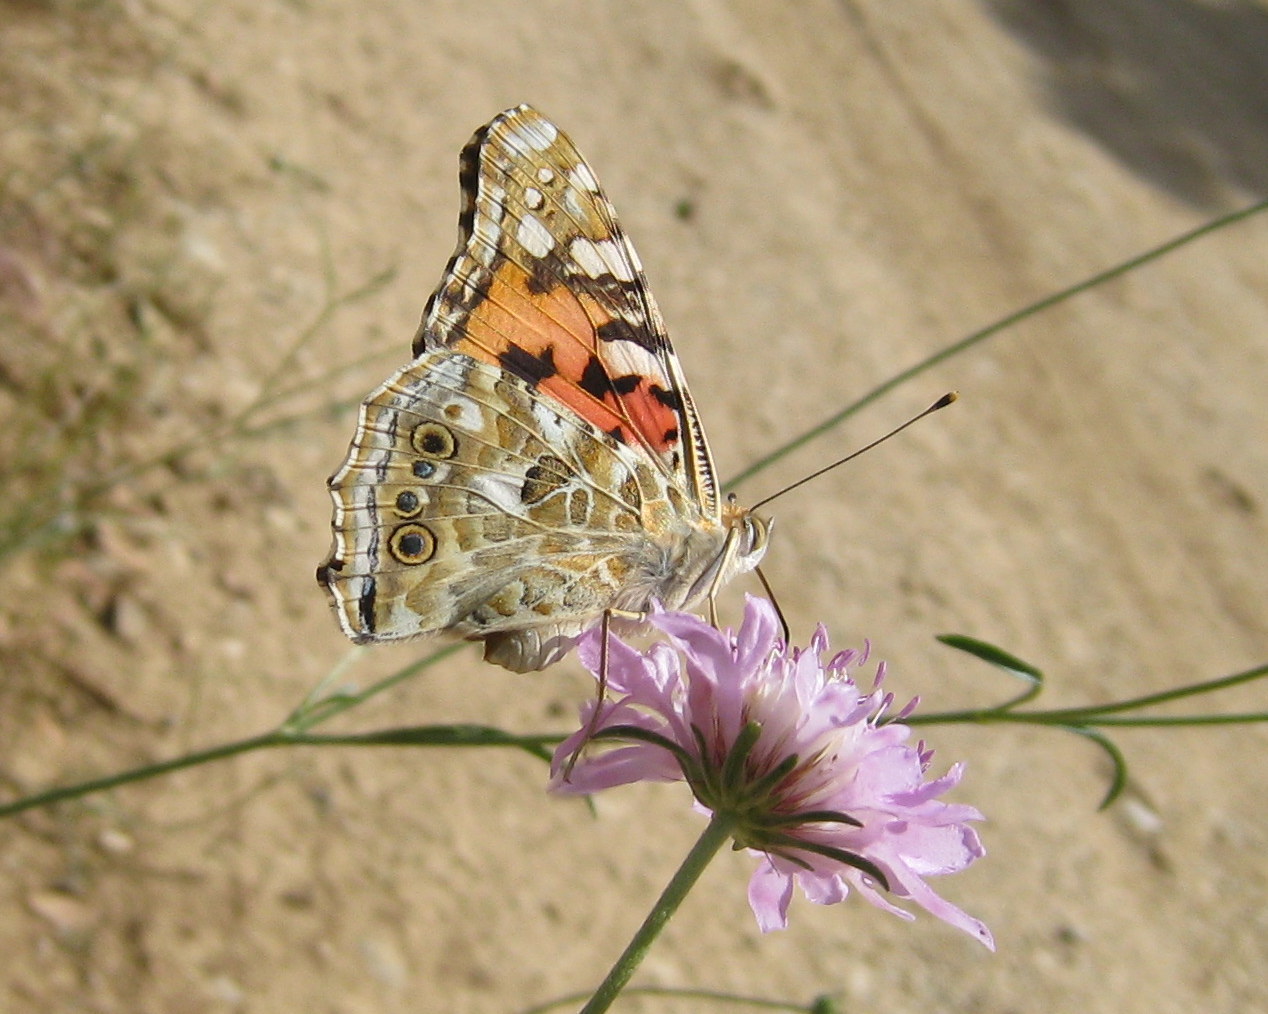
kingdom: Animalia
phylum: Arthropoda
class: Insecta
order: Lepidoptera
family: Nymphalidae
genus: Vanessa
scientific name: Vanessa cardui
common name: Painted lady
